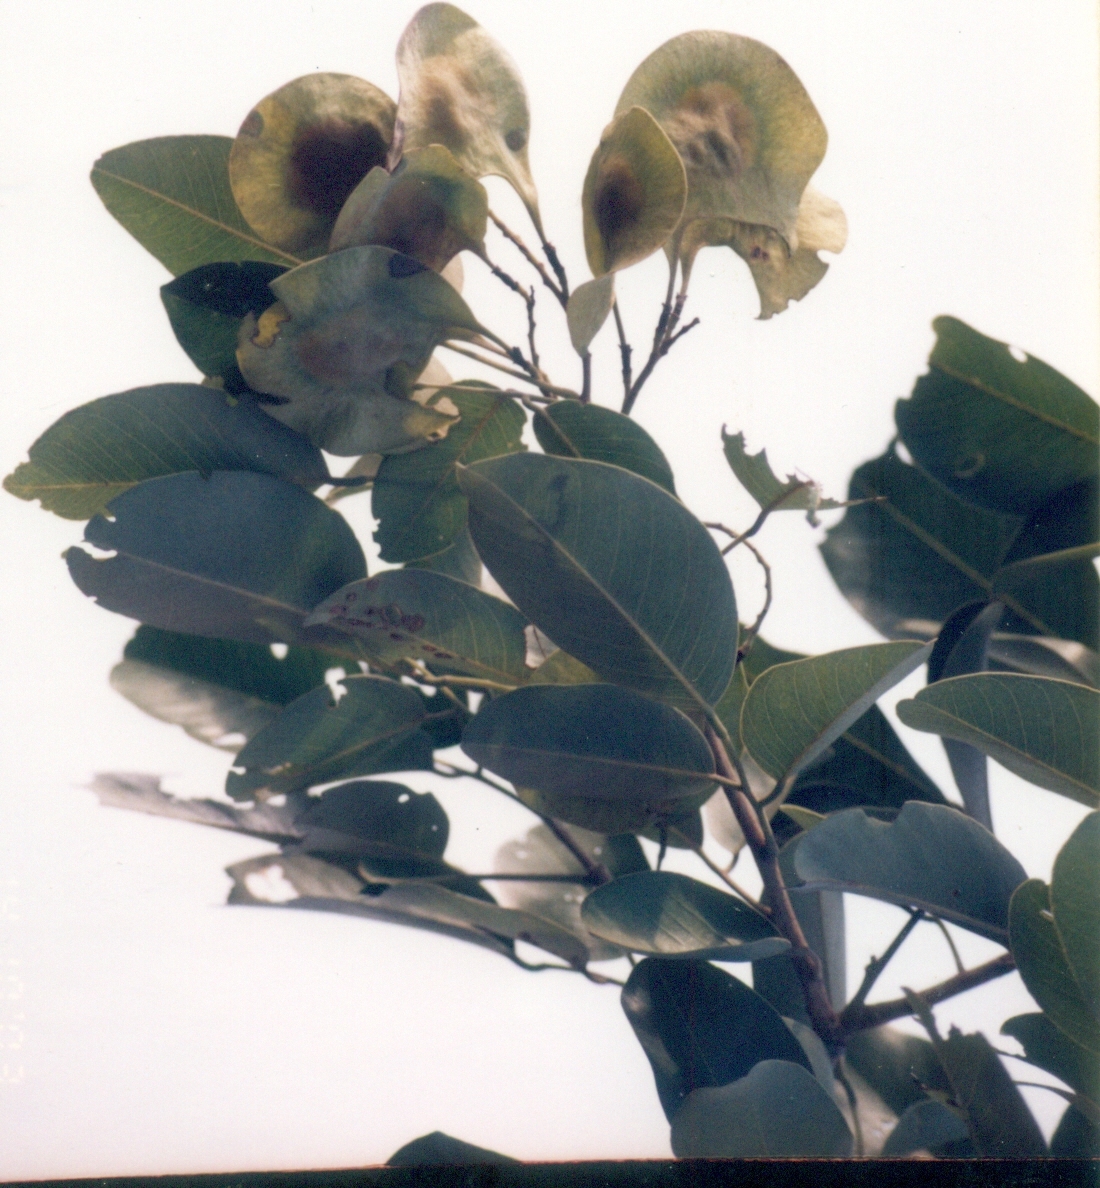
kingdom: Plantae
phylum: Tracheophyta
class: Magnoliopsida
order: Fabales
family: Fabaceae
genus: Pterocarpus
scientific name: Pterocarpus santalinus
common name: Red sanders
